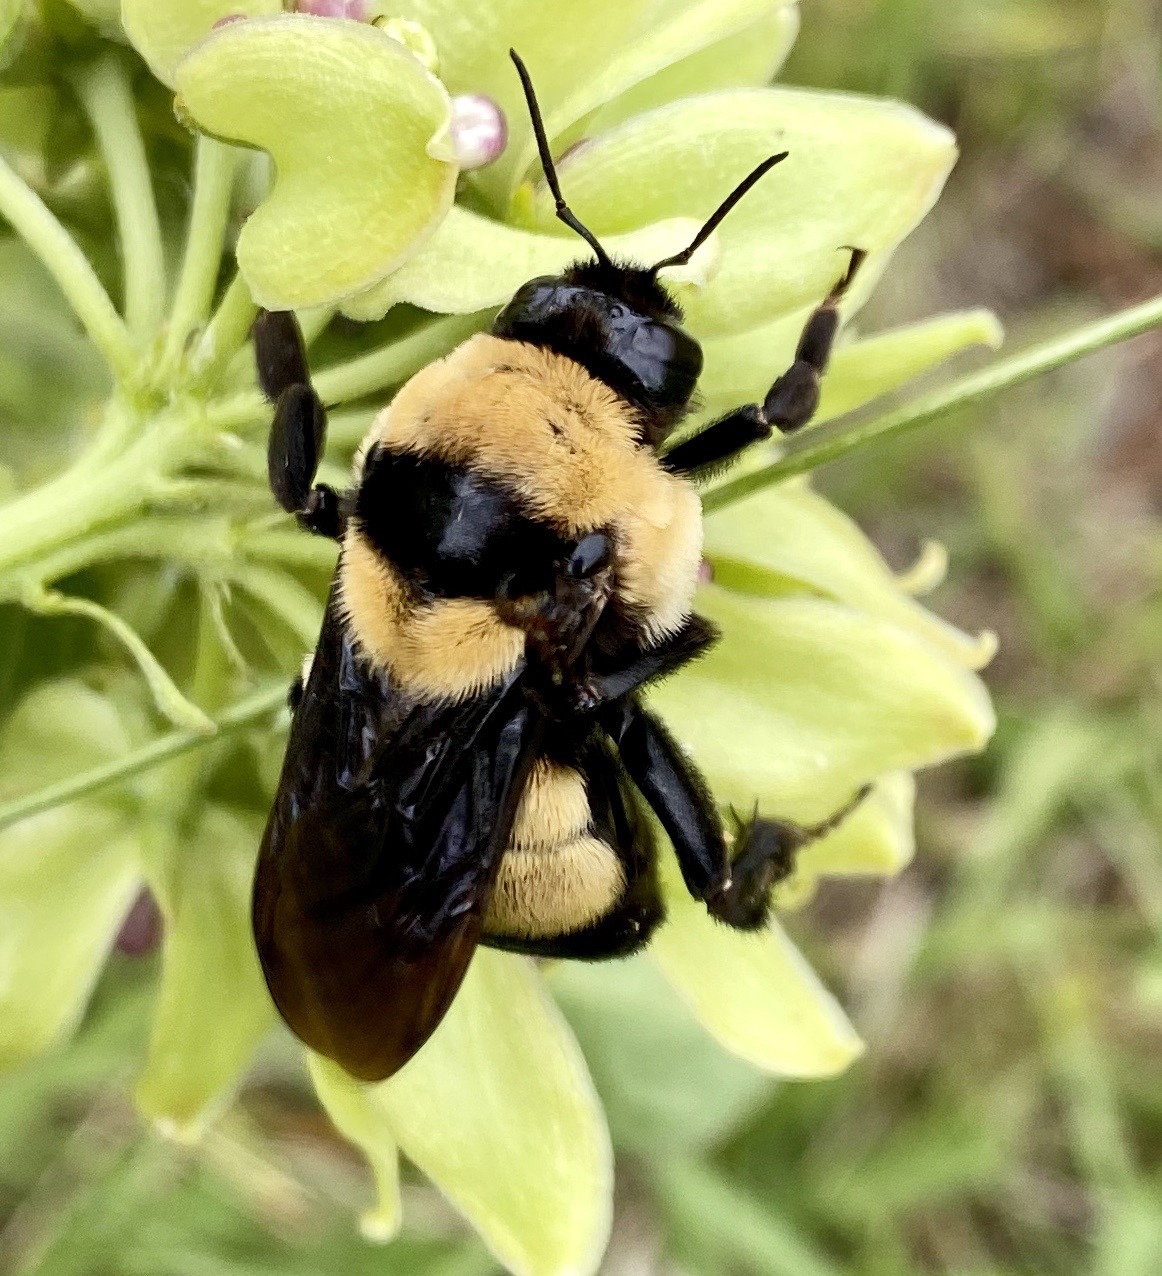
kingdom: Animalia
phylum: Arthropoda
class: Insecta
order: Hymenoptera
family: Apidae
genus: Bombus
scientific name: Bombus fraternus
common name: Southern plains bumble bee
